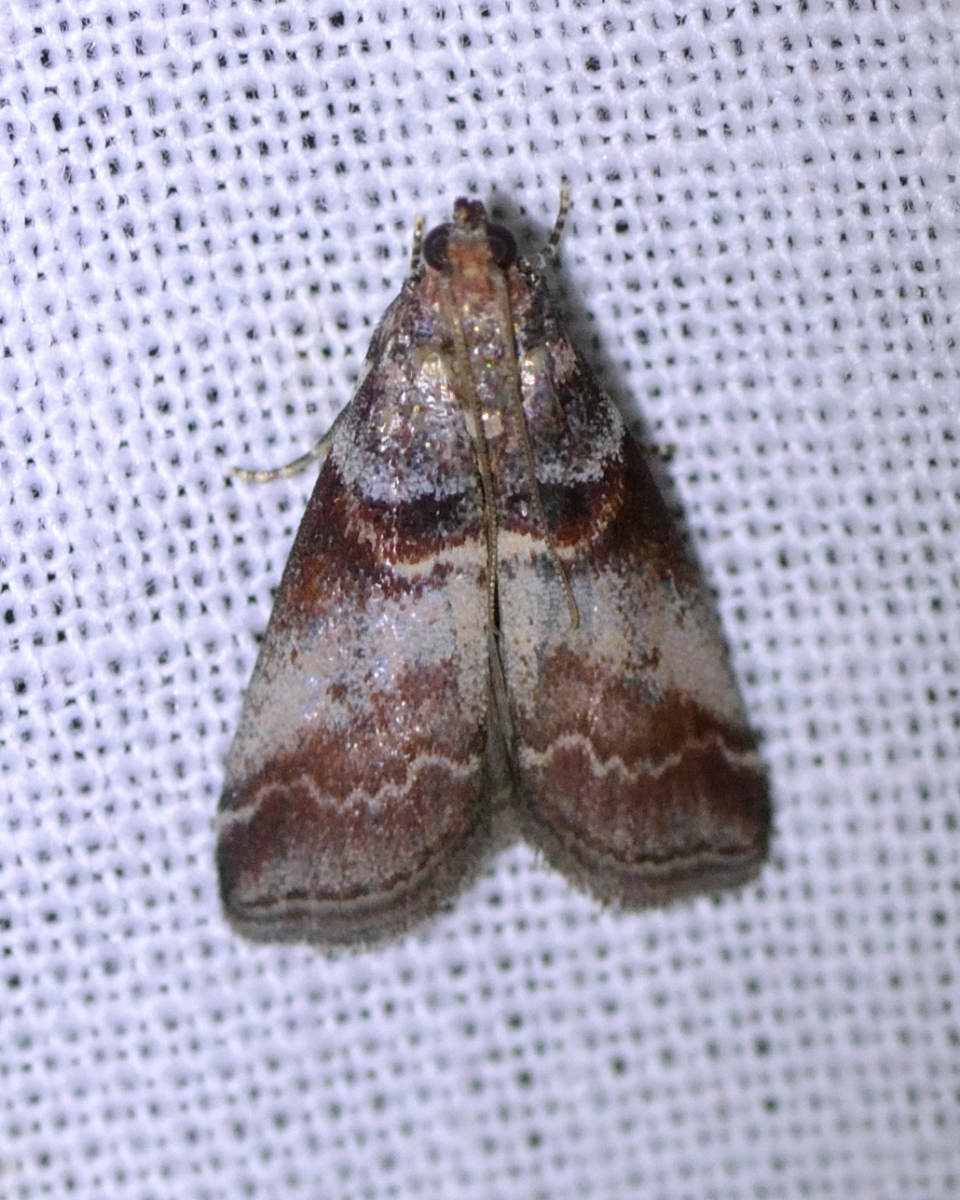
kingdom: Animalia
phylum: Arthropoda
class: Insecta
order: Lepidoptera
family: Pyralidae
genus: Acrobasis
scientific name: Acrobasis advenella
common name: Grey knot-horn
